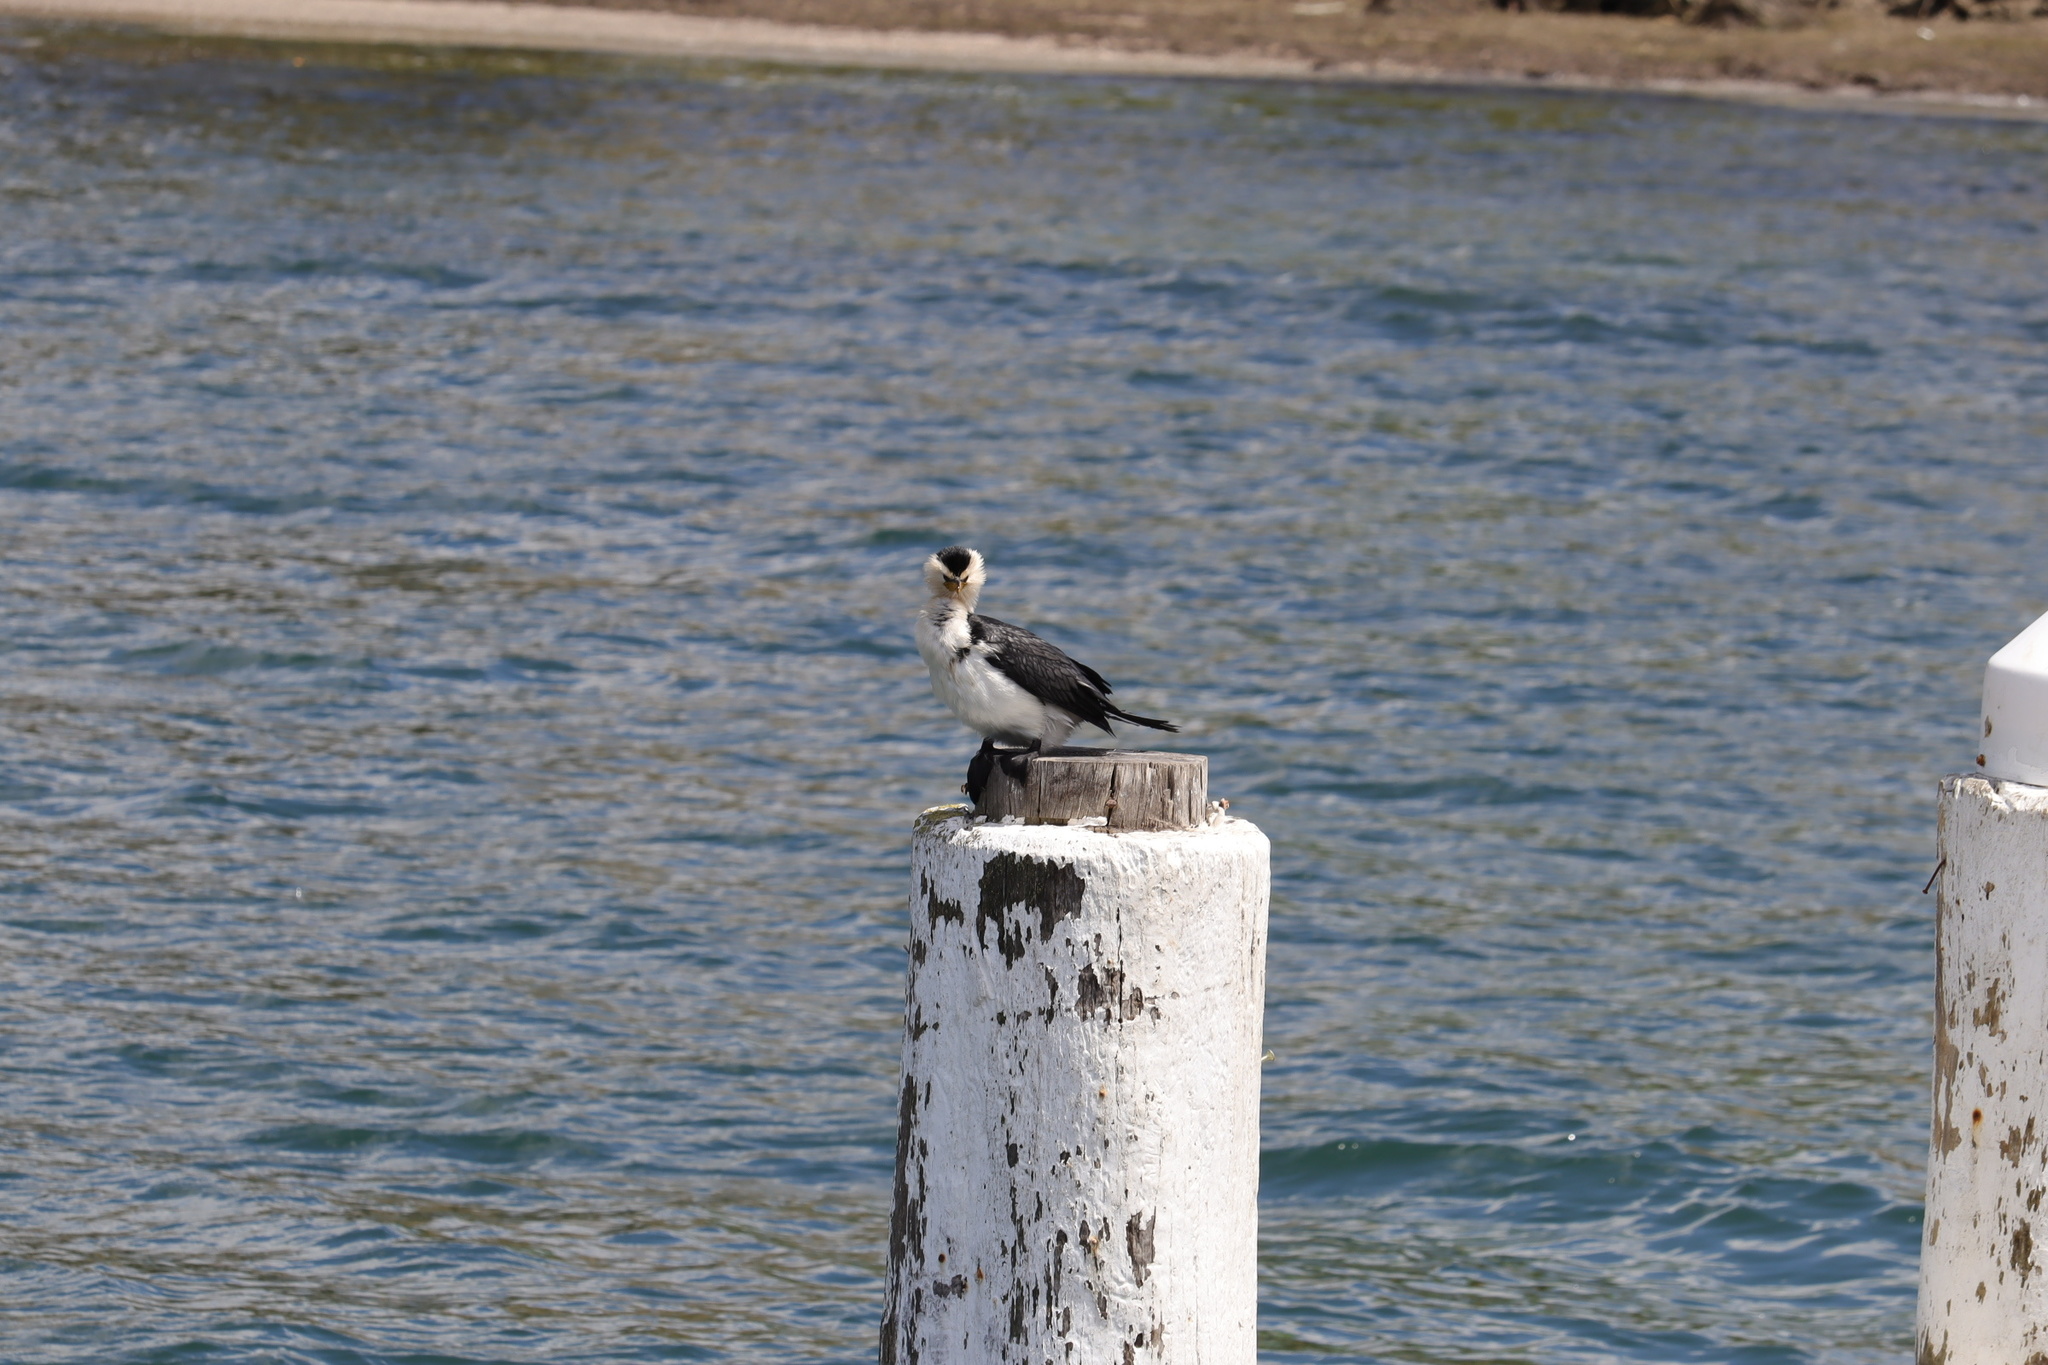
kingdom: Animalia
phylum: Chordata
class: Aves
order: Suliformes
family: Phalacrocoracidae
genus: Microcarbo
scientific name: Microcarbo melanoleucos
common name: Little pied cormorant
